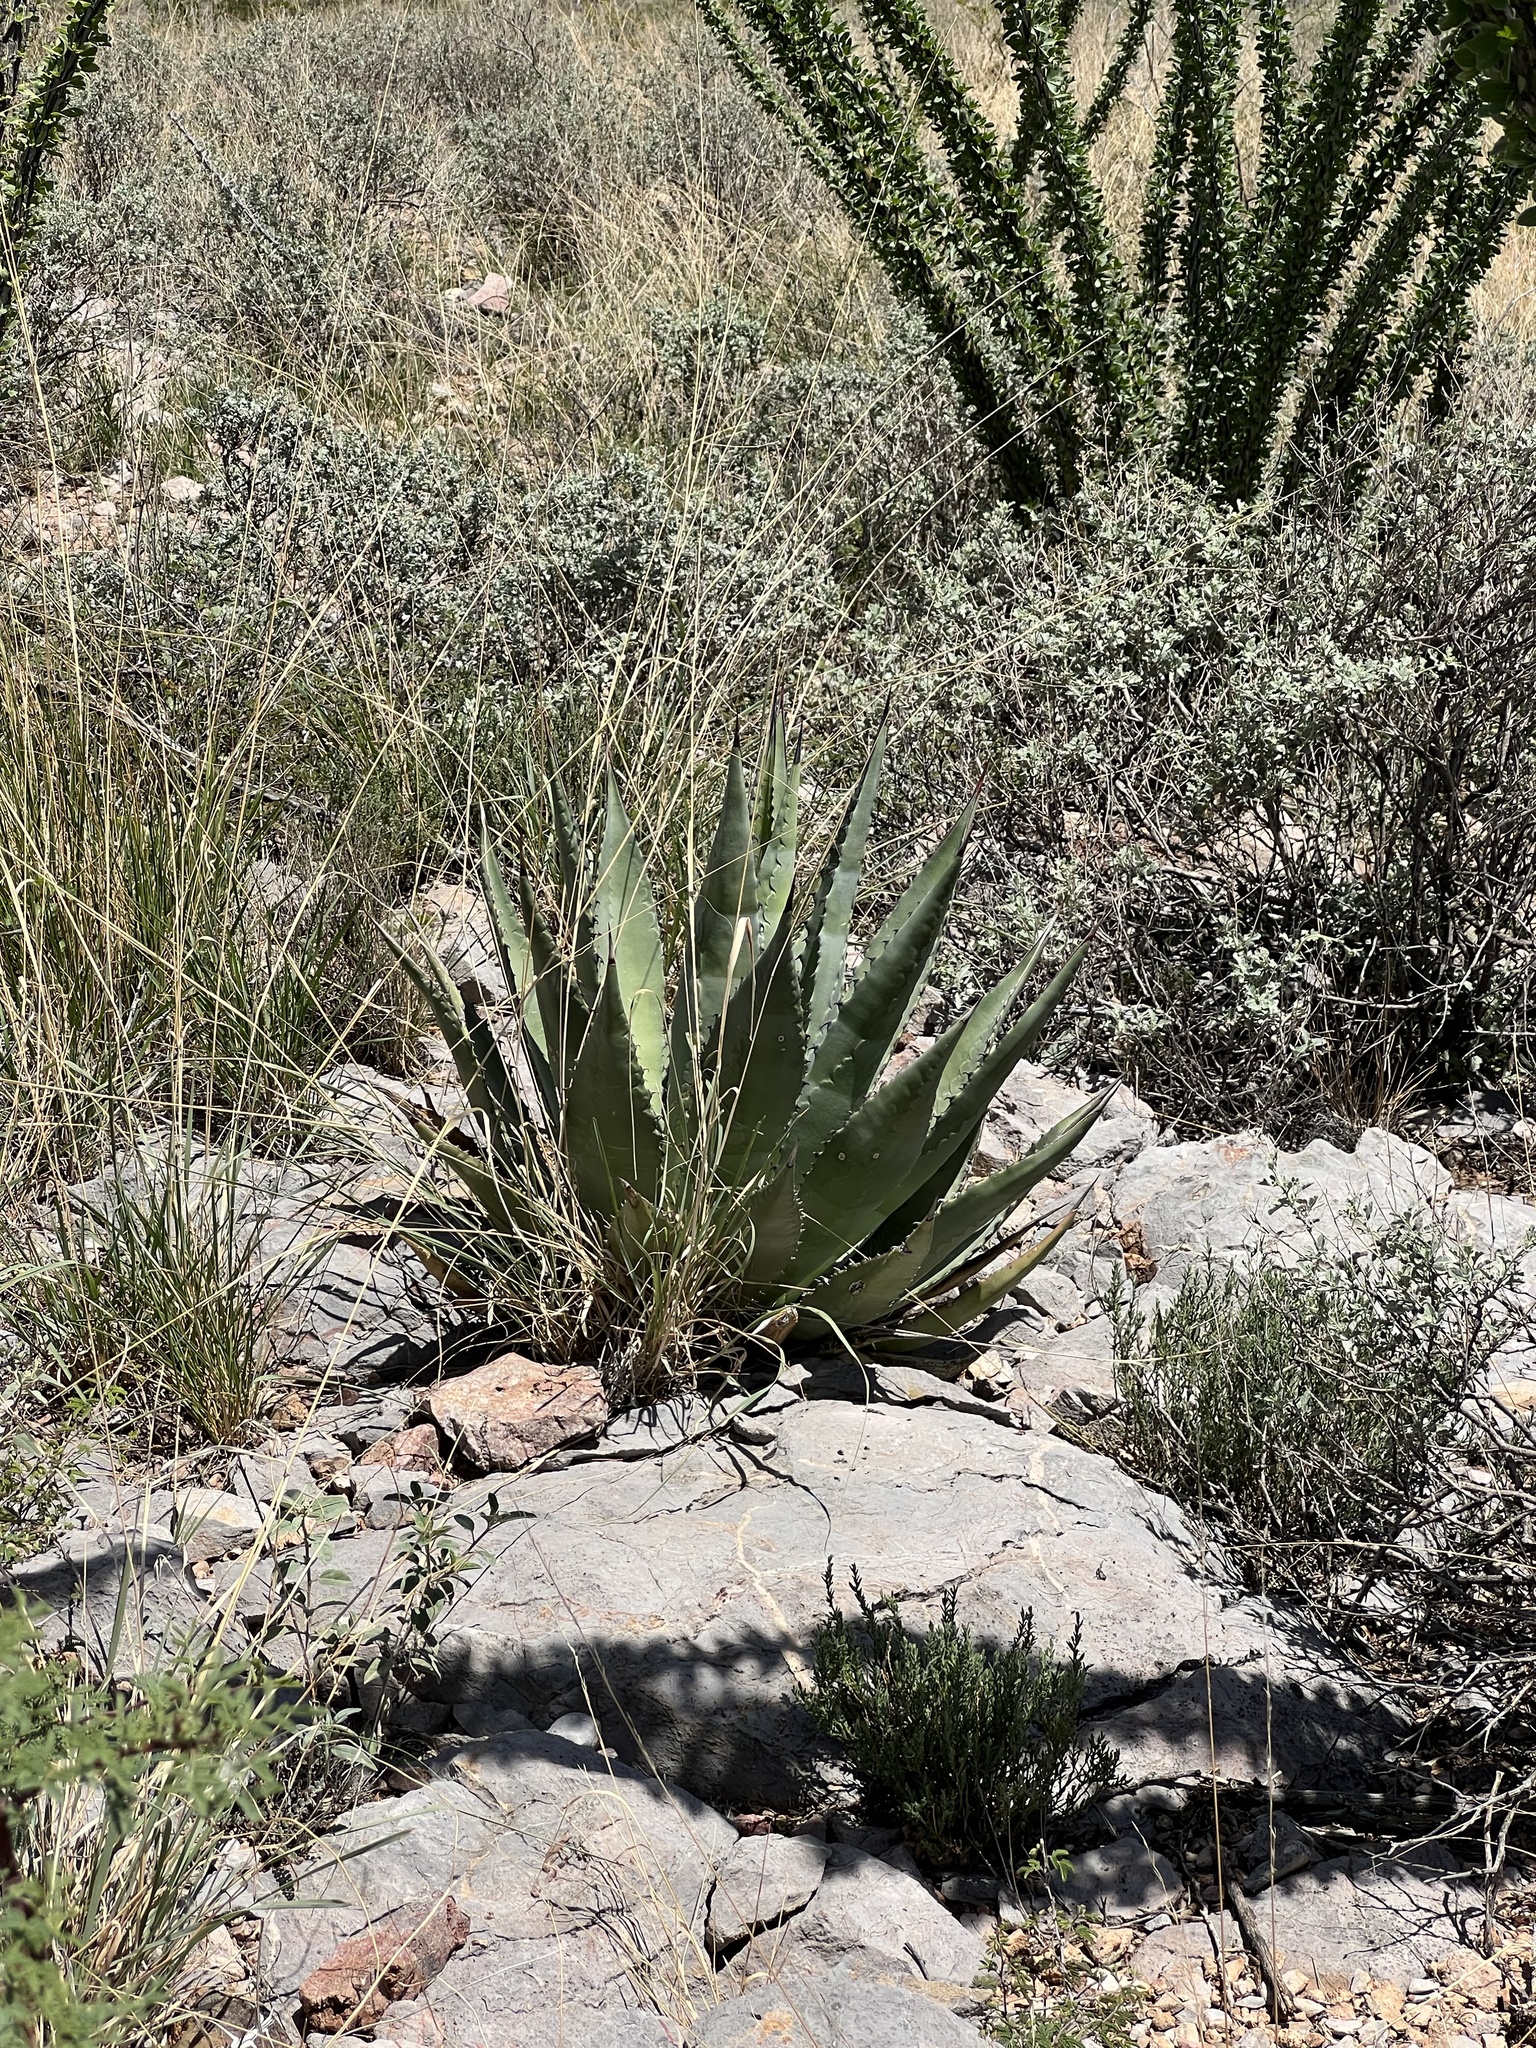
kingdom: Plantae
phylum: Tracheophyta
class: Liliopsida
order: Asparagales
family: Asparagaceae
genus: Agave
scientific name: Agave palmeri
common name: Palmer agave
